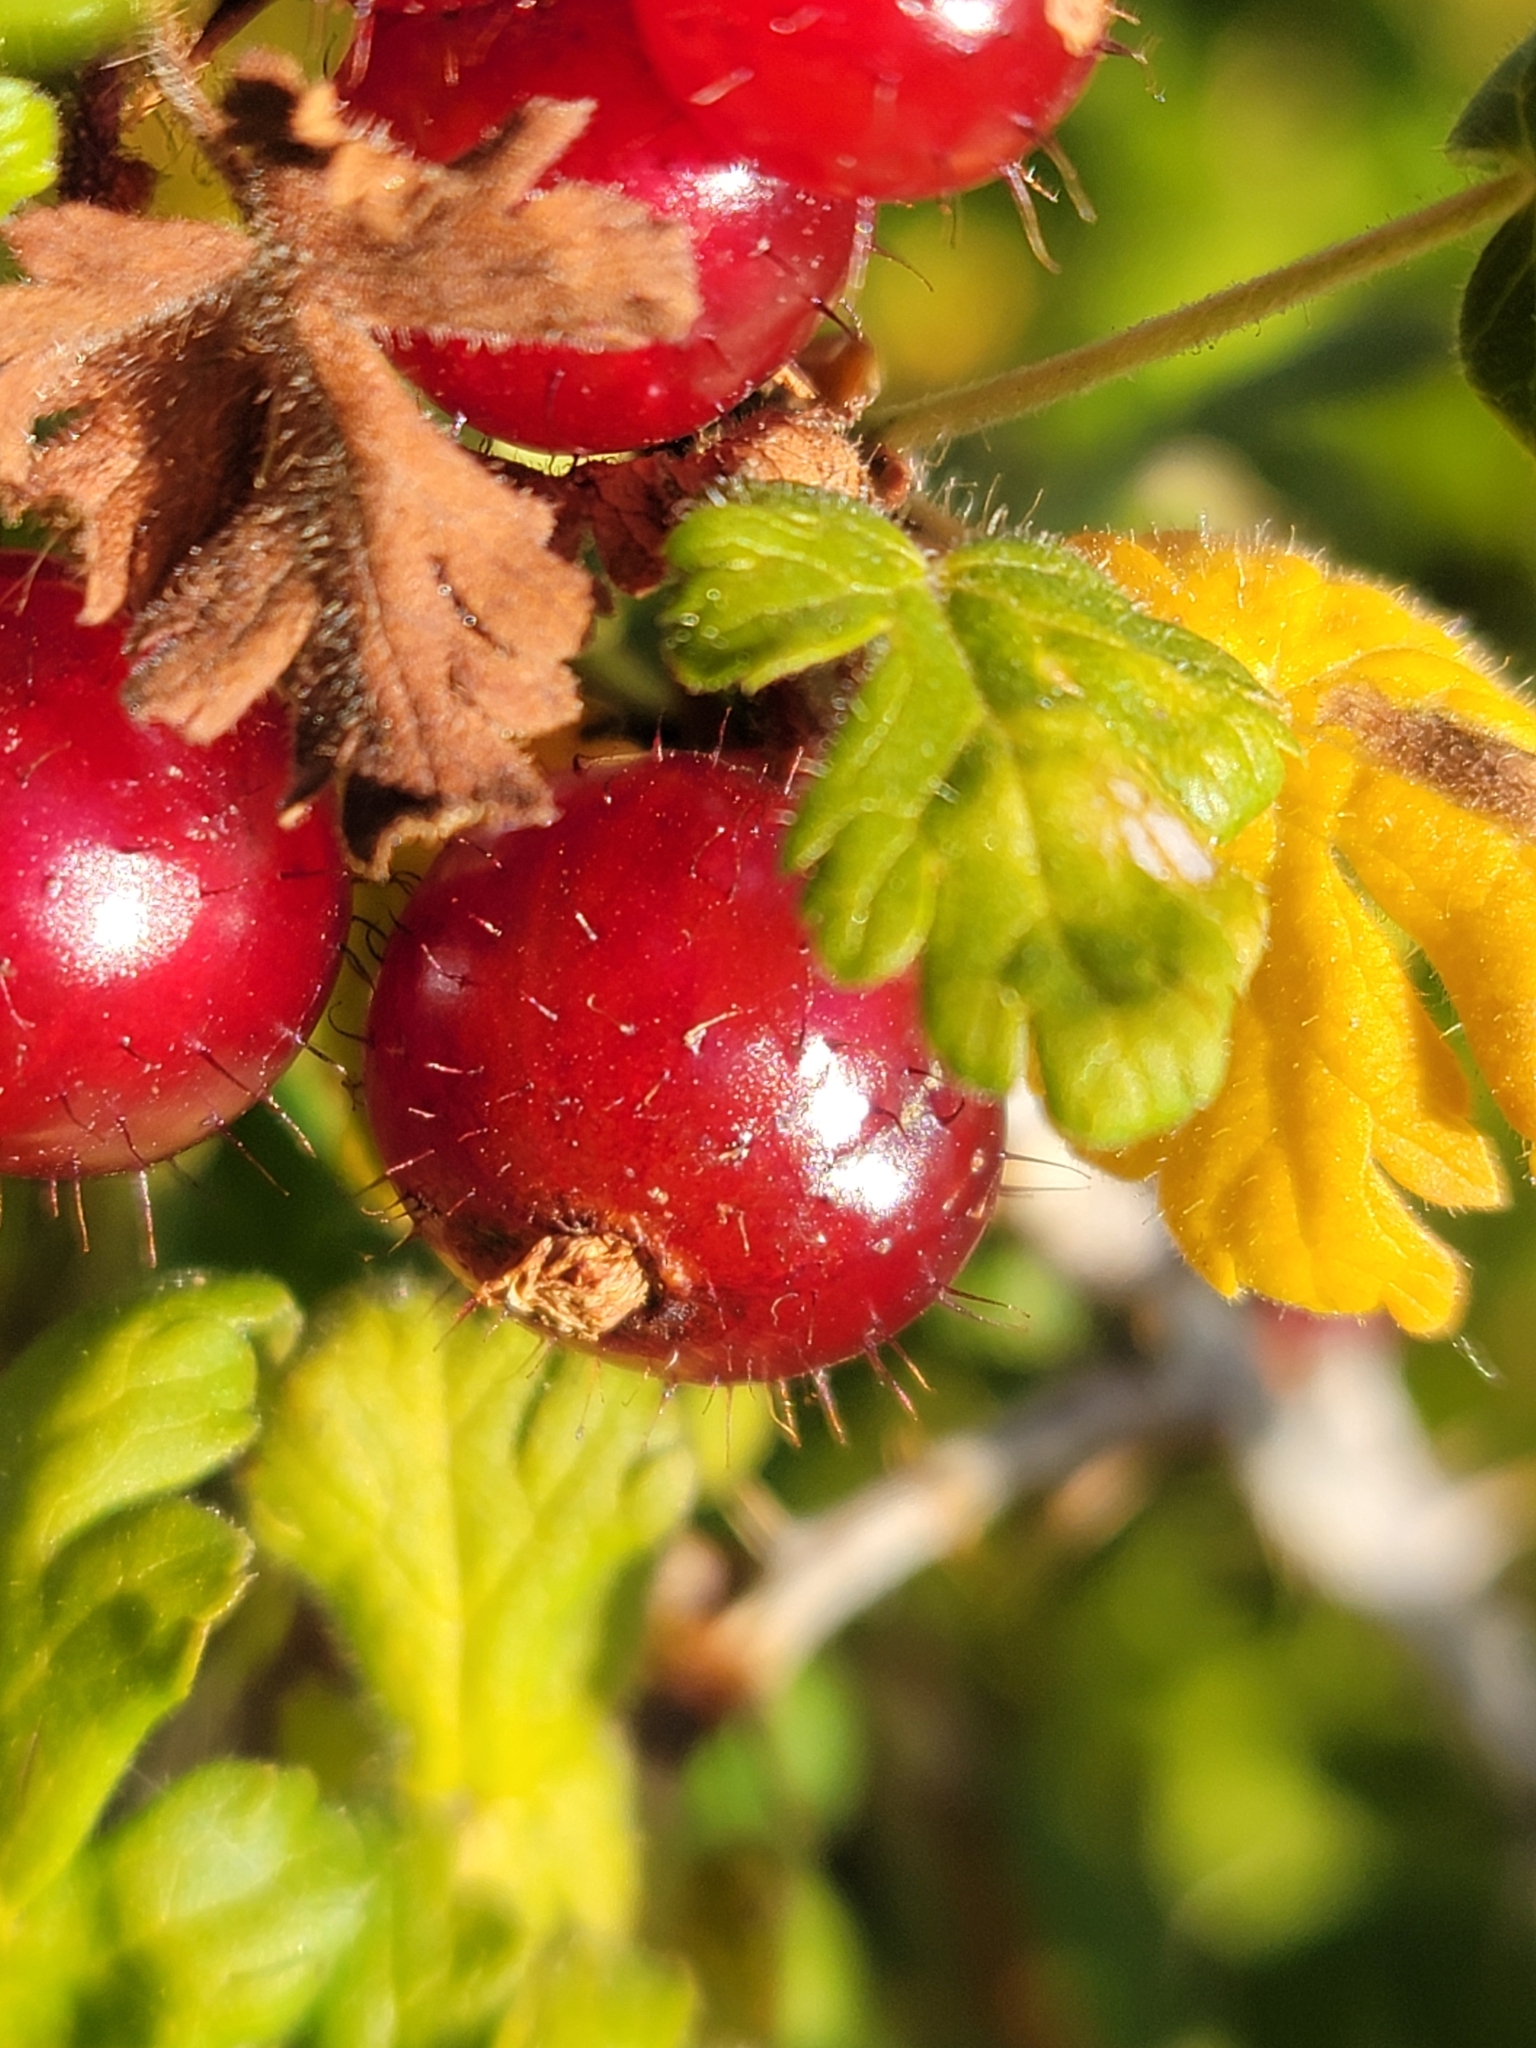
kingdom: Plantae
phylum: Tracheophyta
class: Magnoliopsida
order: Saxifragales
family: Grossulariaceae
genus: Ribes
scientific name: Ribes montigenum
